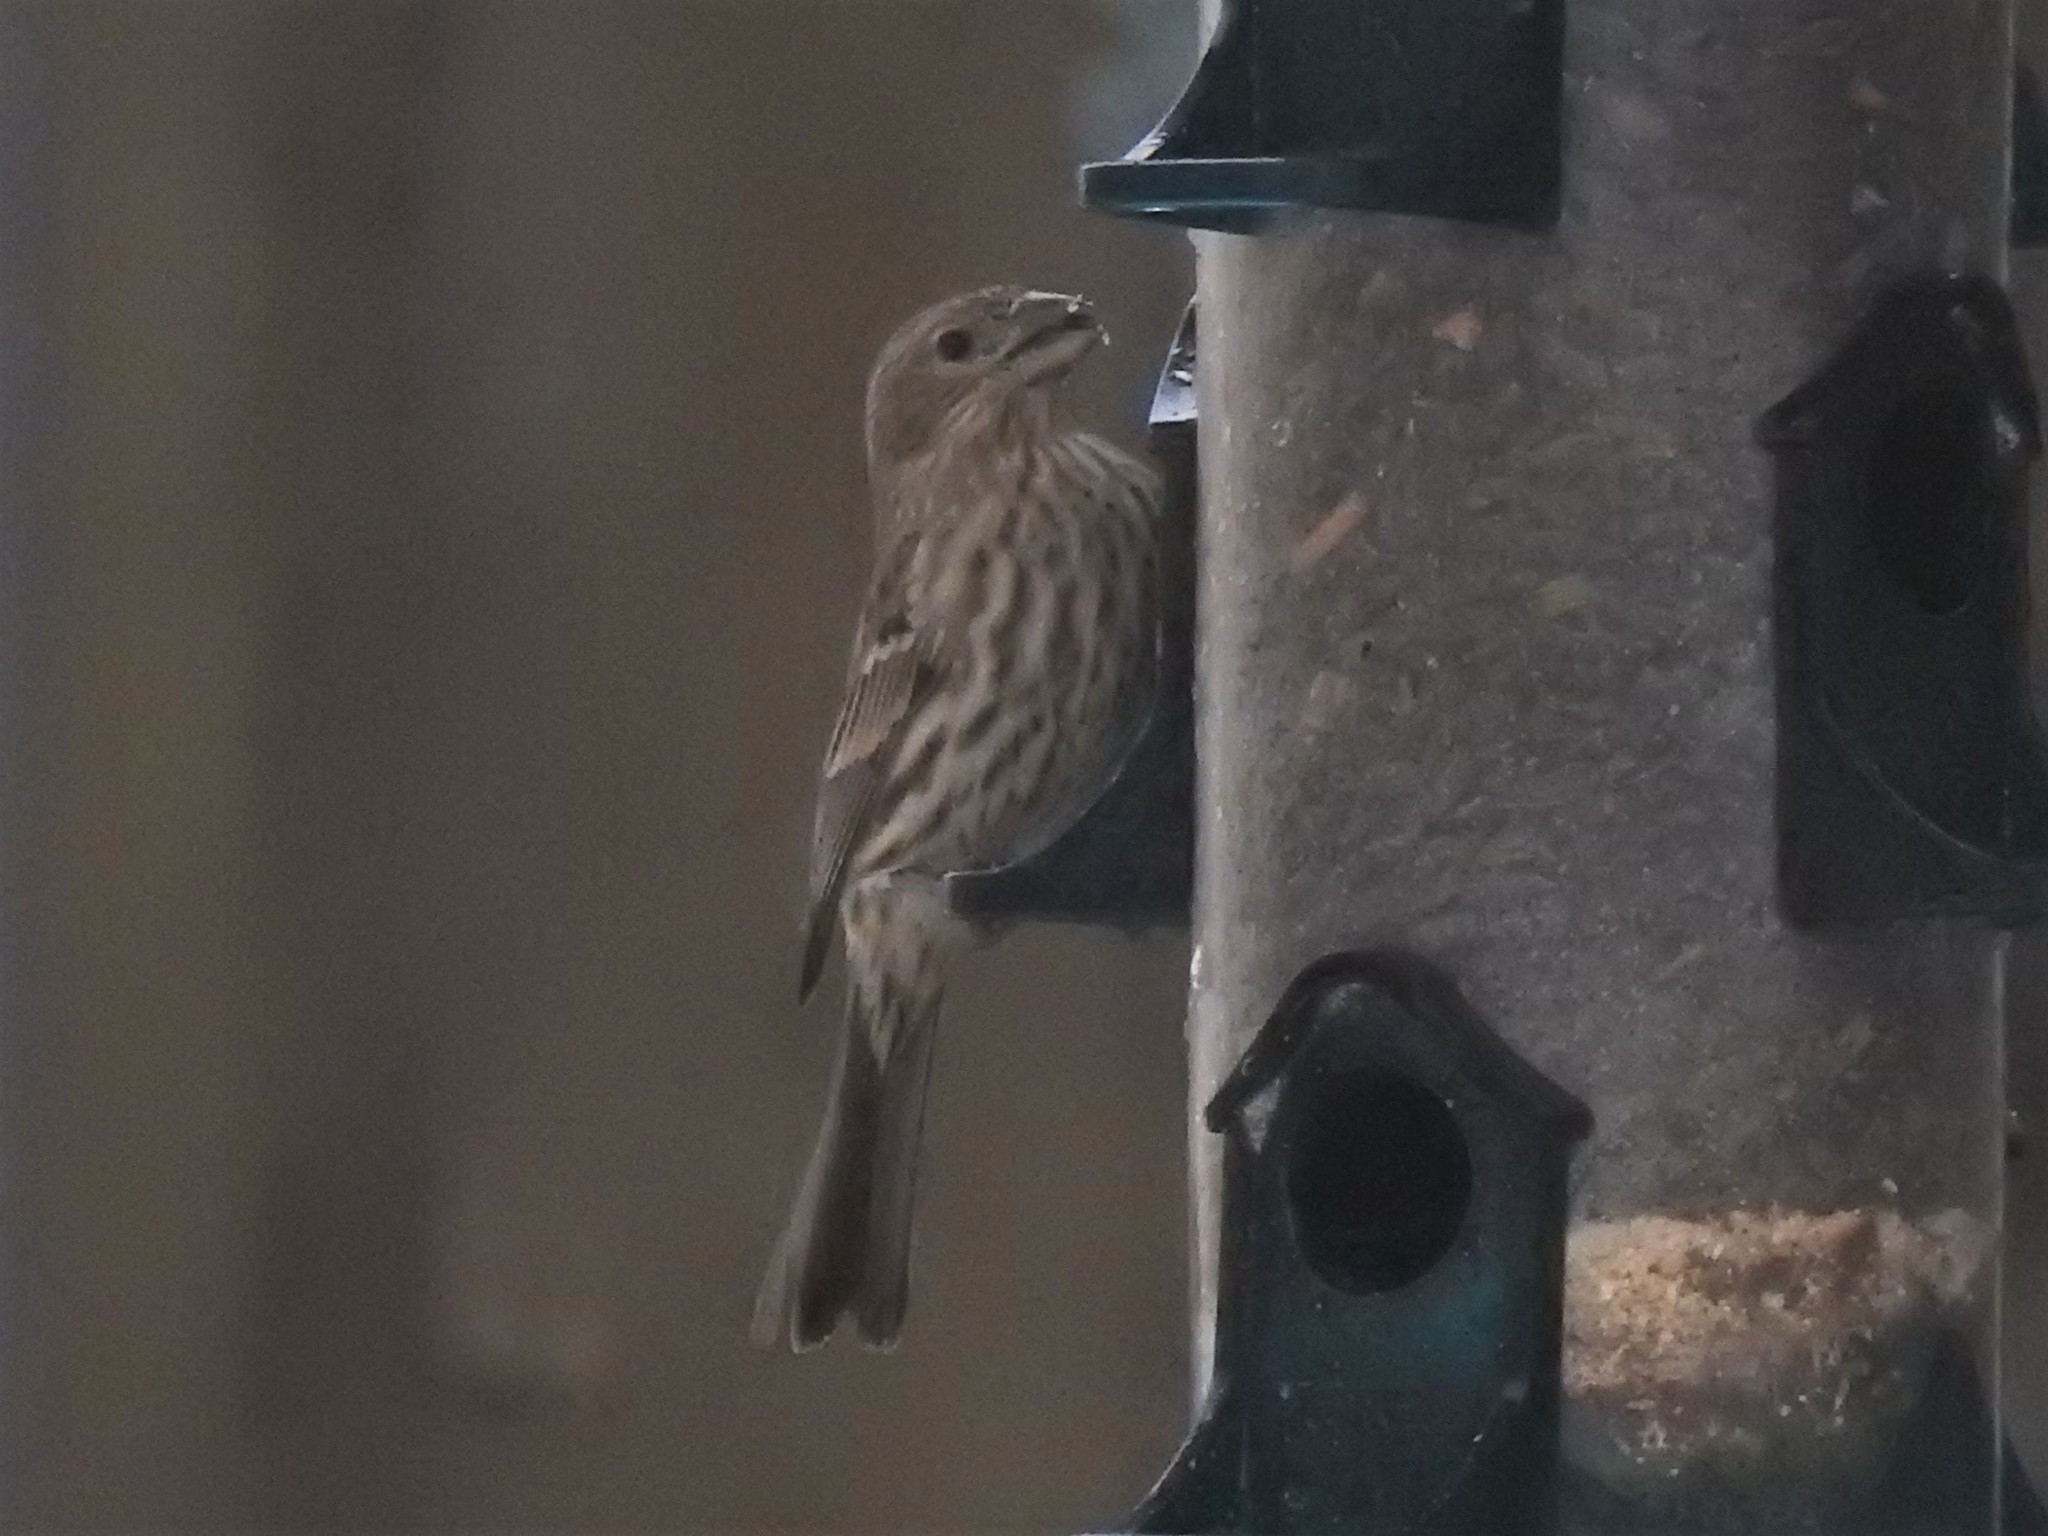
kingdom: Animalia
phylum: Chordata
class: Aves
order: Passeriformes
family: Fringillidae
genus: Haemorhous
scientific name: Haemorhous mexicanus
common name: House finch
